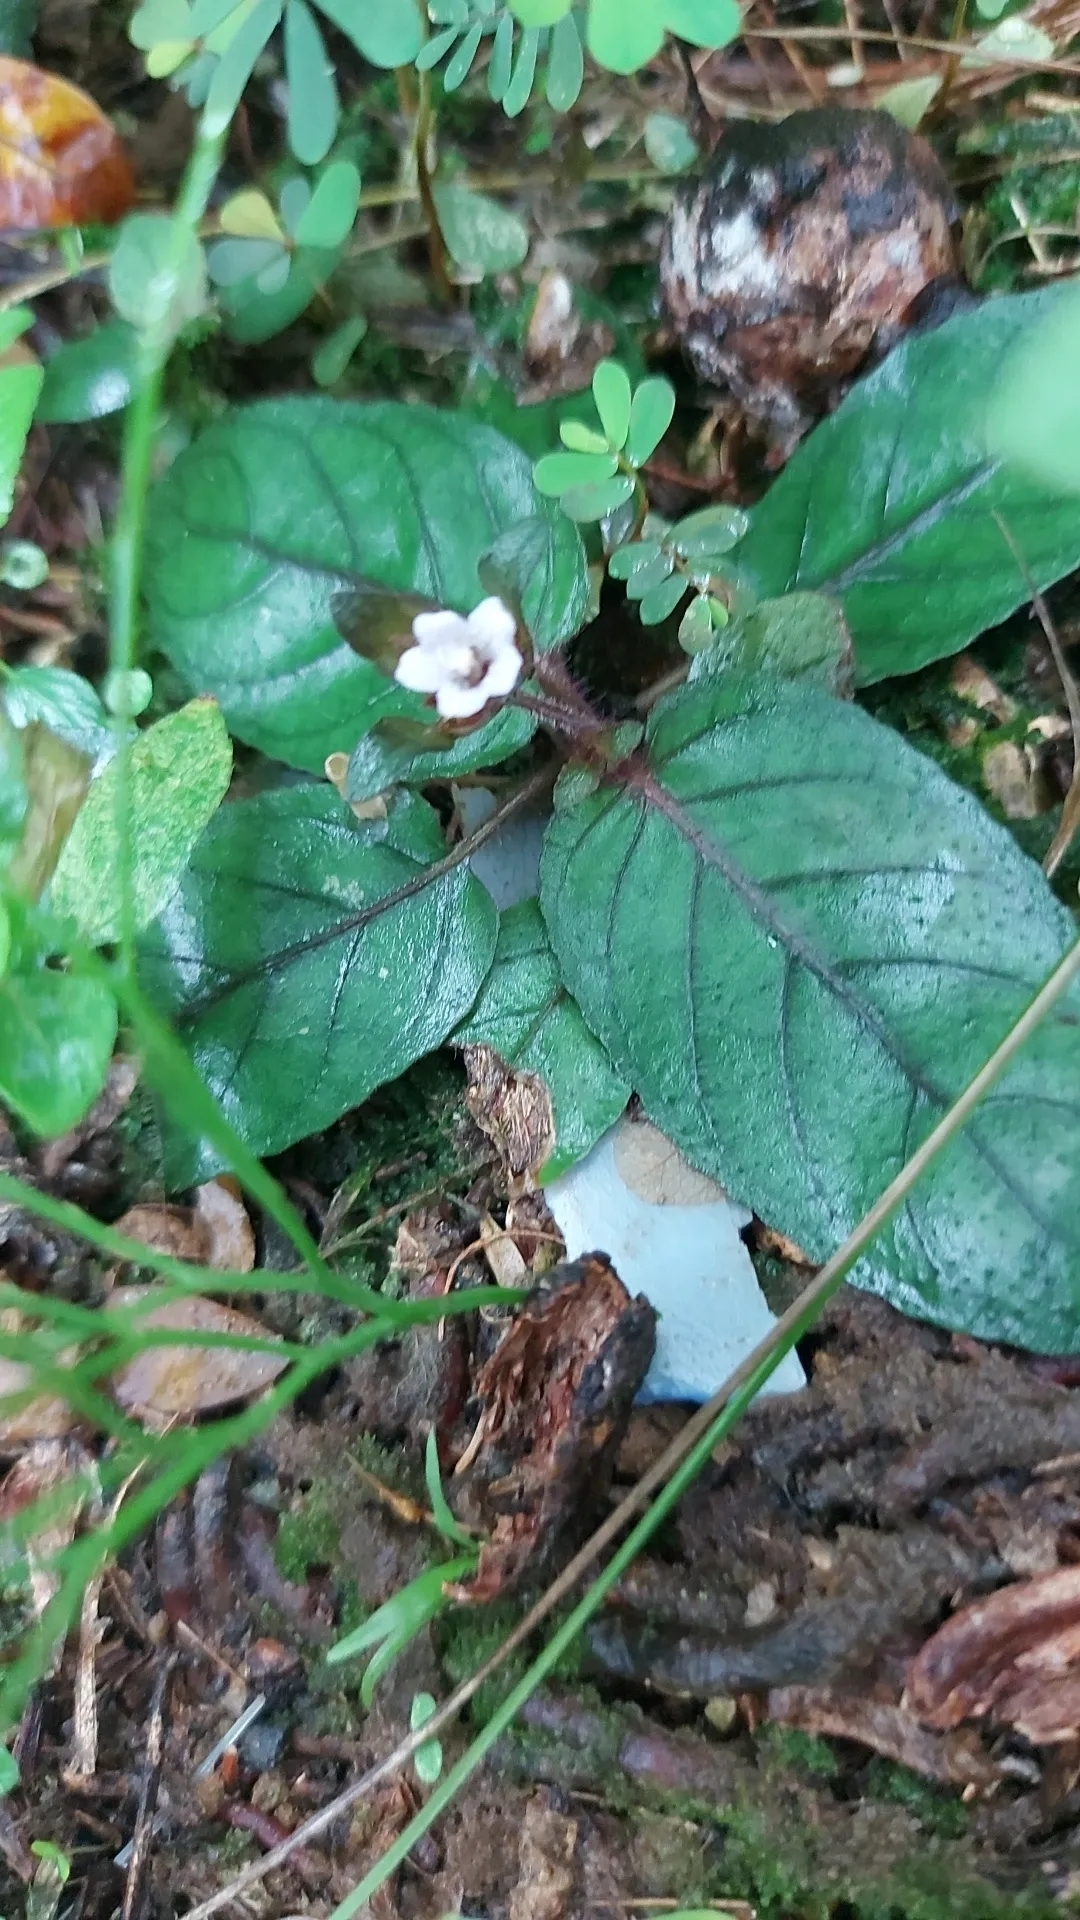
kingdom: Plantae
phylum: Tracheophyta
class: Magnoliopsida
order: Lamiales
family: Acanthaceae
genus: Strobilanthes
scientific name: Strobilanthes reptans
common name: Acanthaceae
